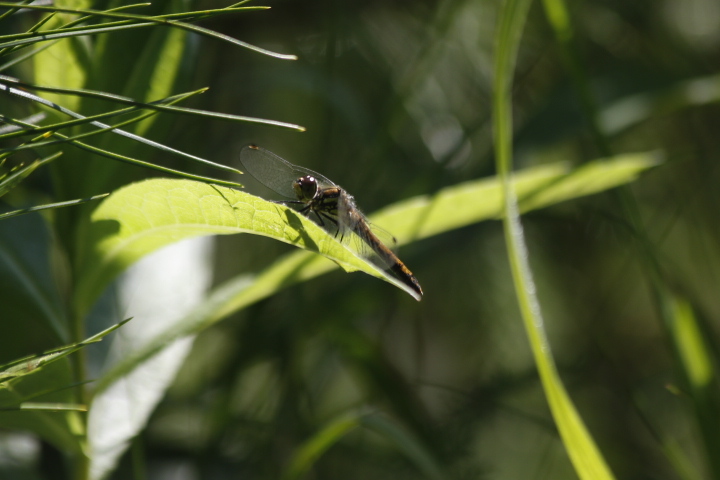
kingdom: Animalia
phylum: Arthropoda
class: Insecta
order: Odonata
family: Libellulidae
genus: Sympetrum
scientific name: Sympetrum danae
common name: Black darter
